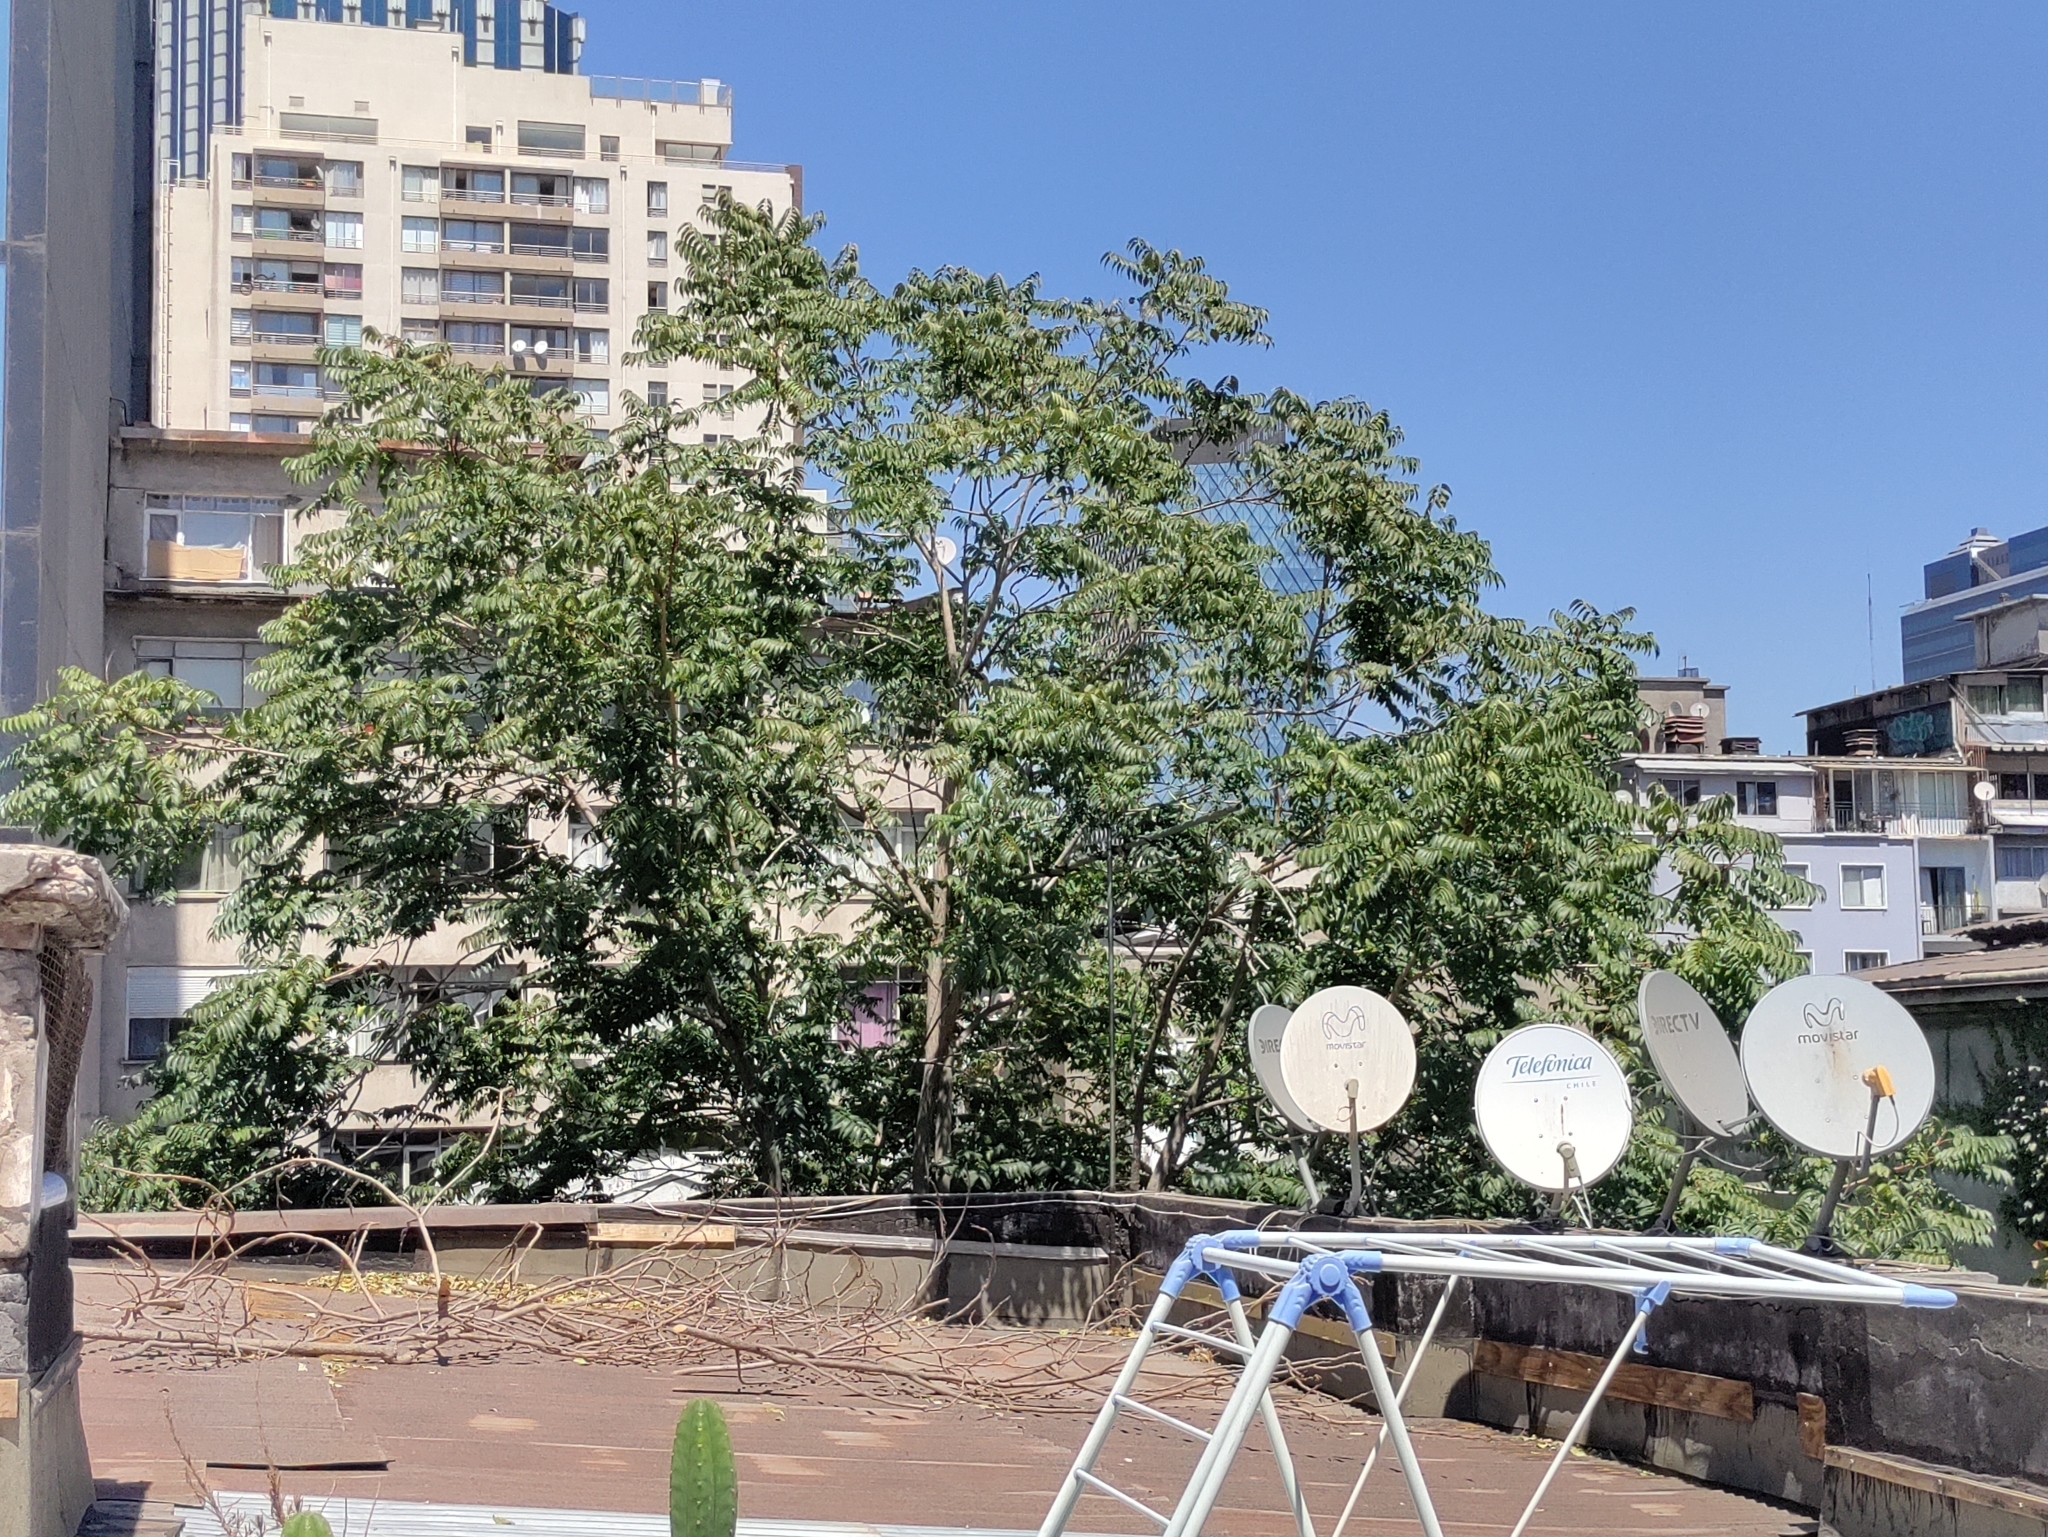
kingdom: Plantae
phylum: Tracheophyta
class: Magnoliopsida
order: Sapindales
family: Simaroubaceae
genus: Ailanthus
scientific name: Ailanthus altissima
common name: Tree-of-heaven
